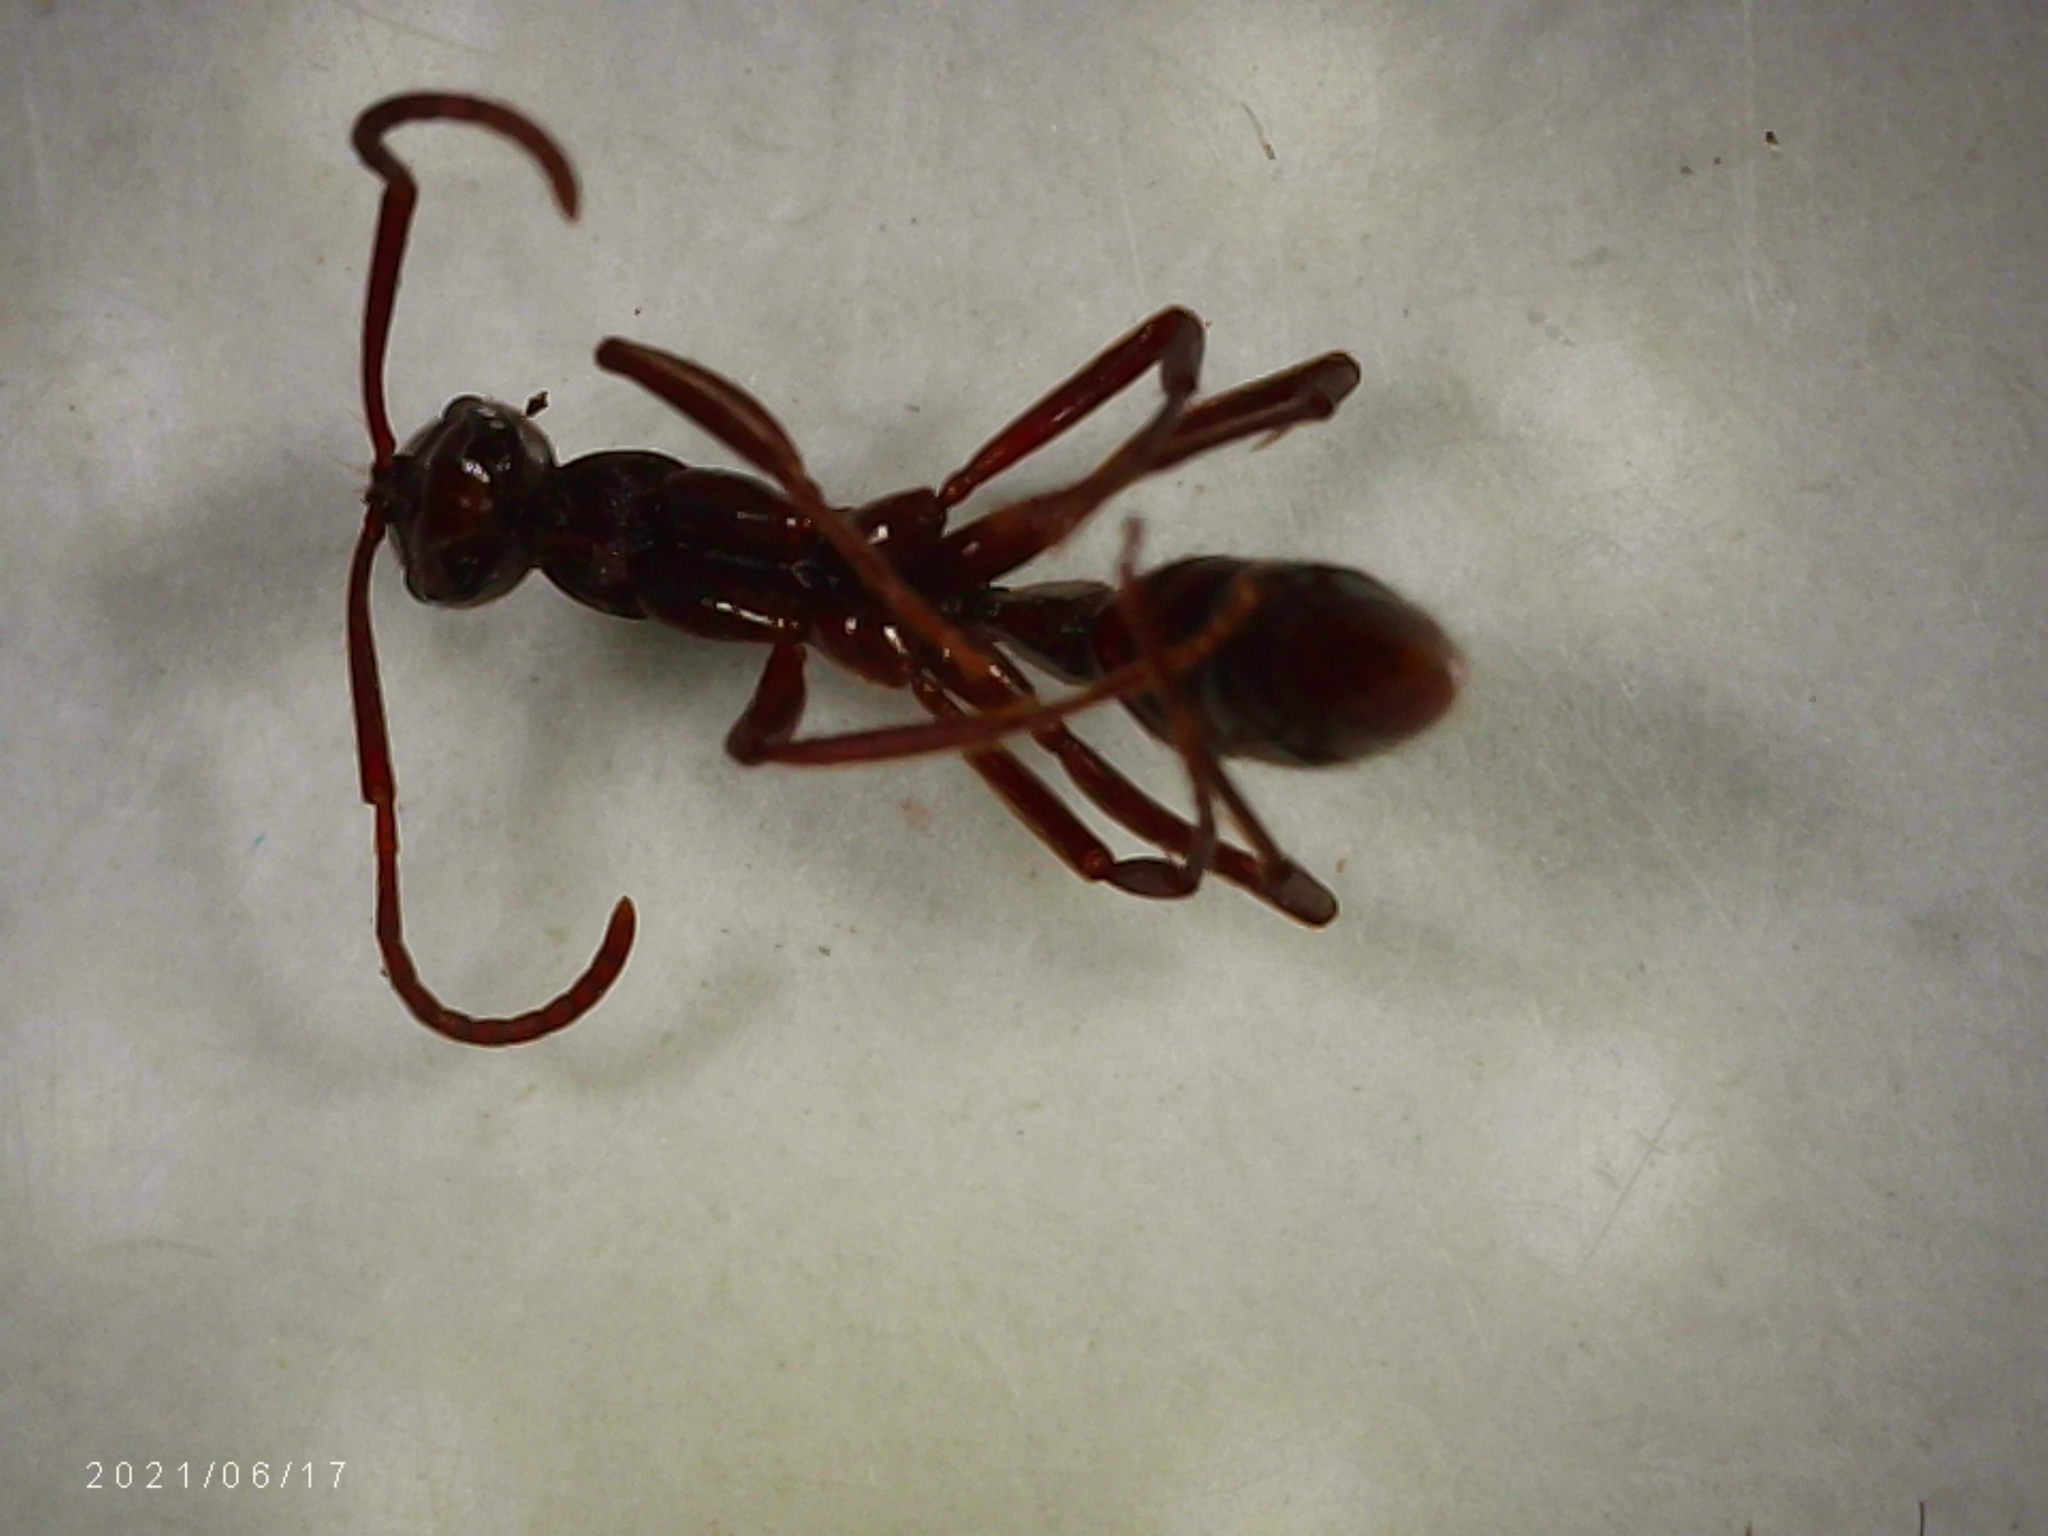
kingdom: Animalia
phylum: Arthropoda
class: Insecta
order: Hymenoptera
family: Formicidae
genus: Leptogenys
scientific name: Leptogenys elongata
